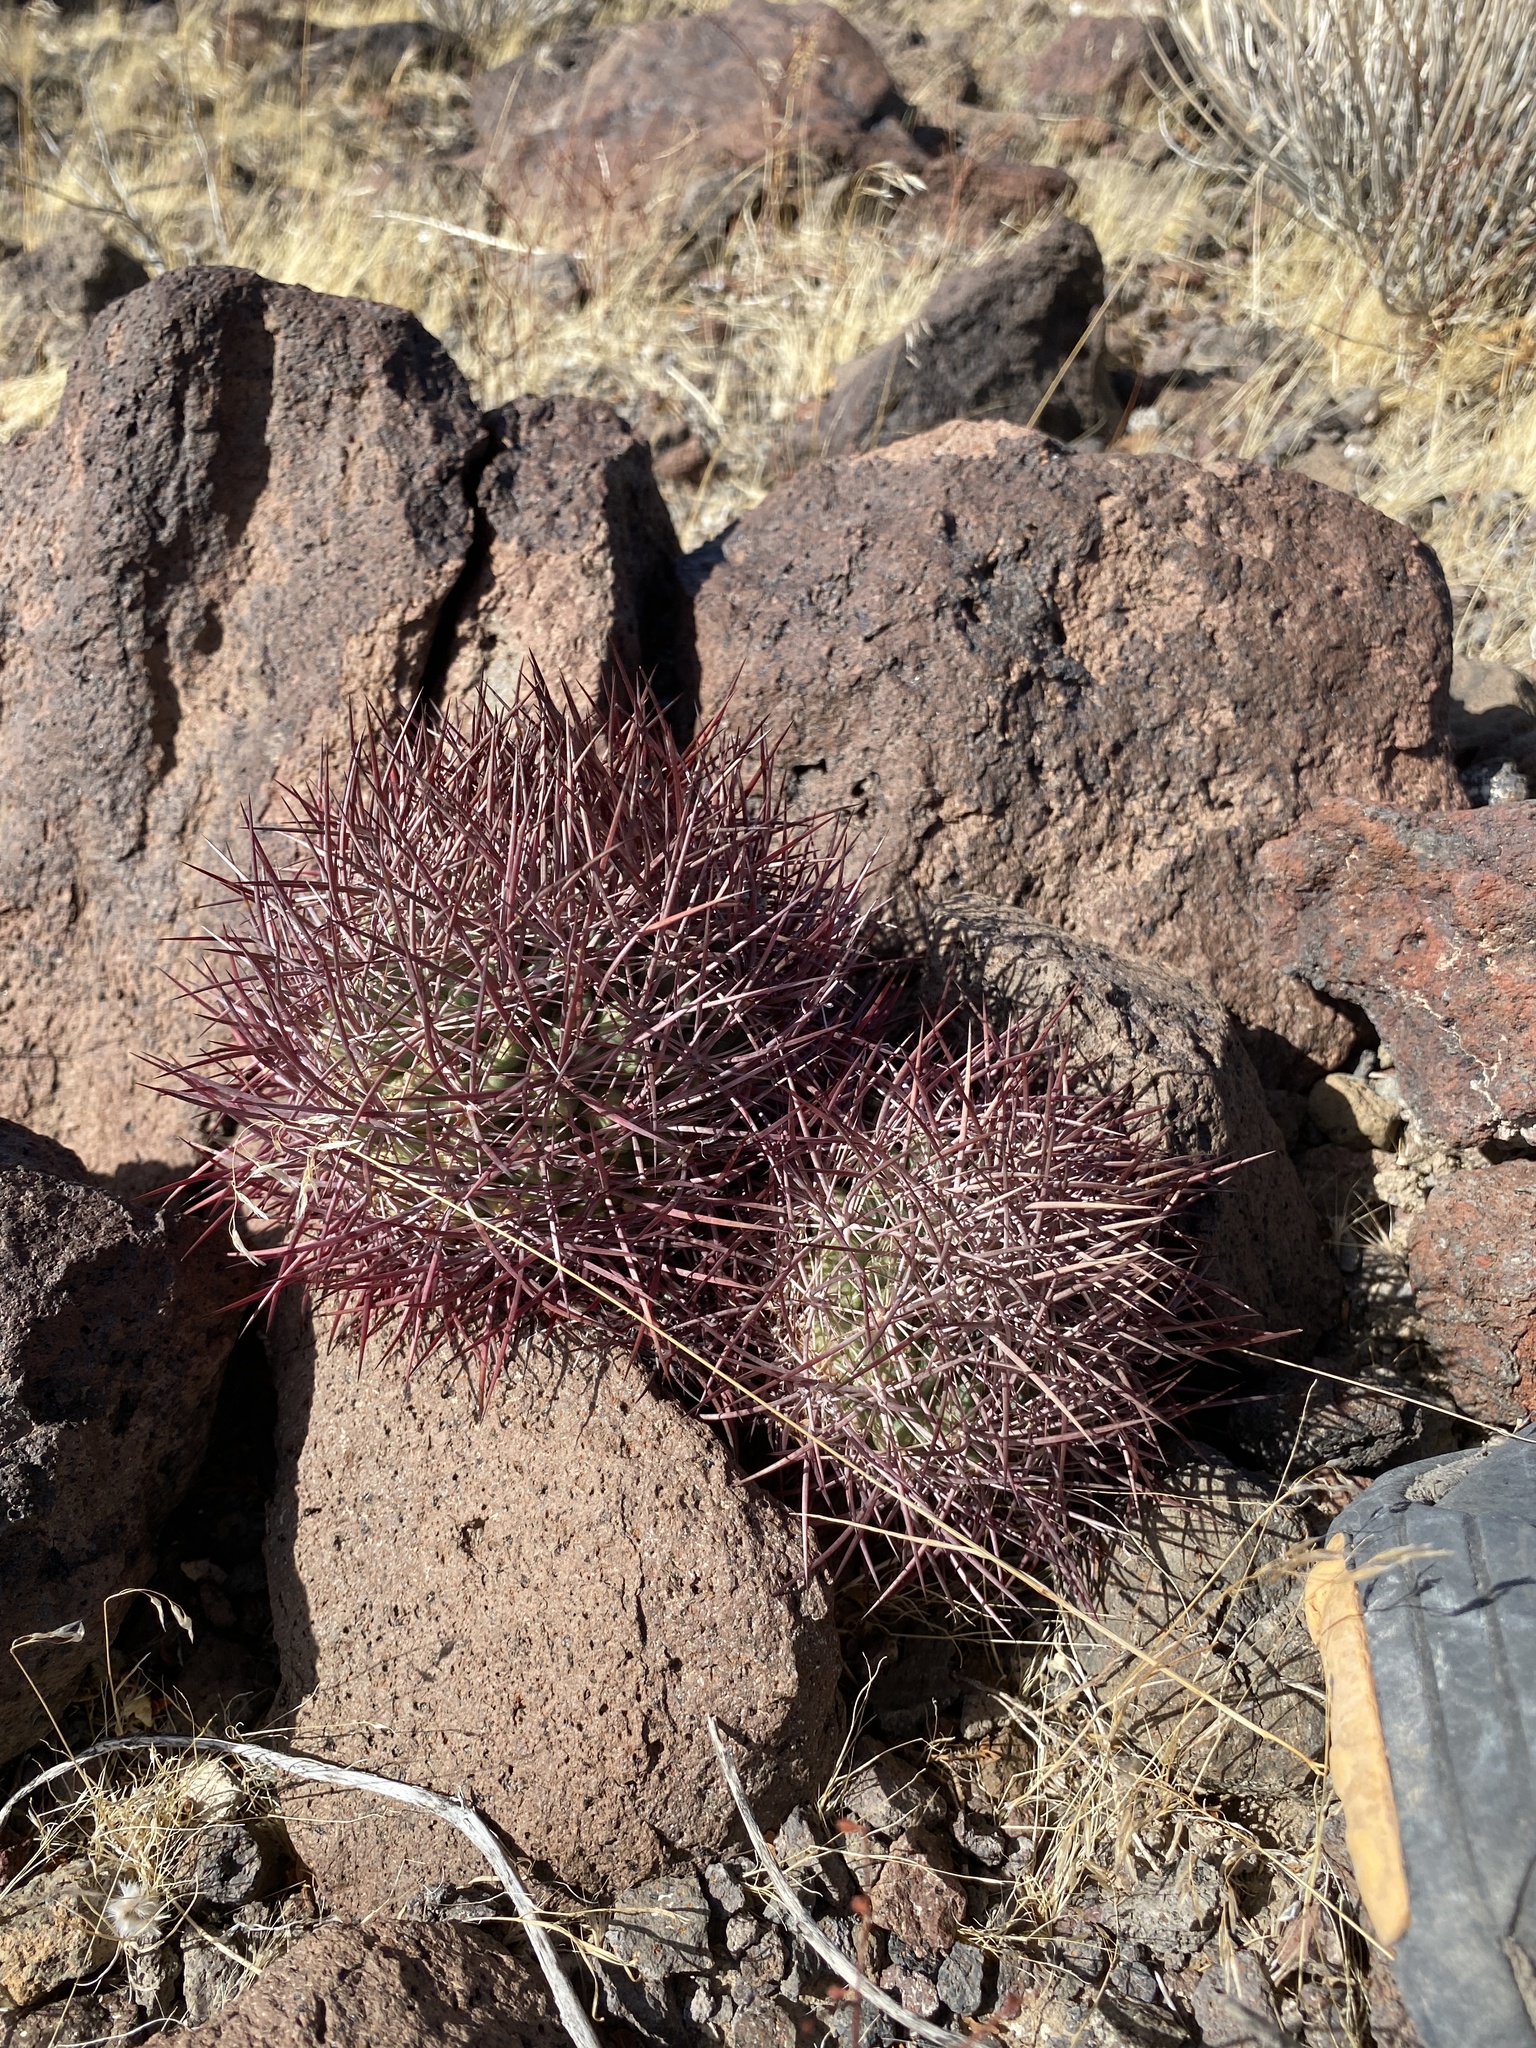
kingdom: Plantae
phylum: Tracheophyta
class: Magnoliopsida
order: Caryophyllales
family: Cactaceae
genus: Sclerocactus
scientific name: Sclerocactus johnsonii
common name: Eight-spine fishhook cactus
